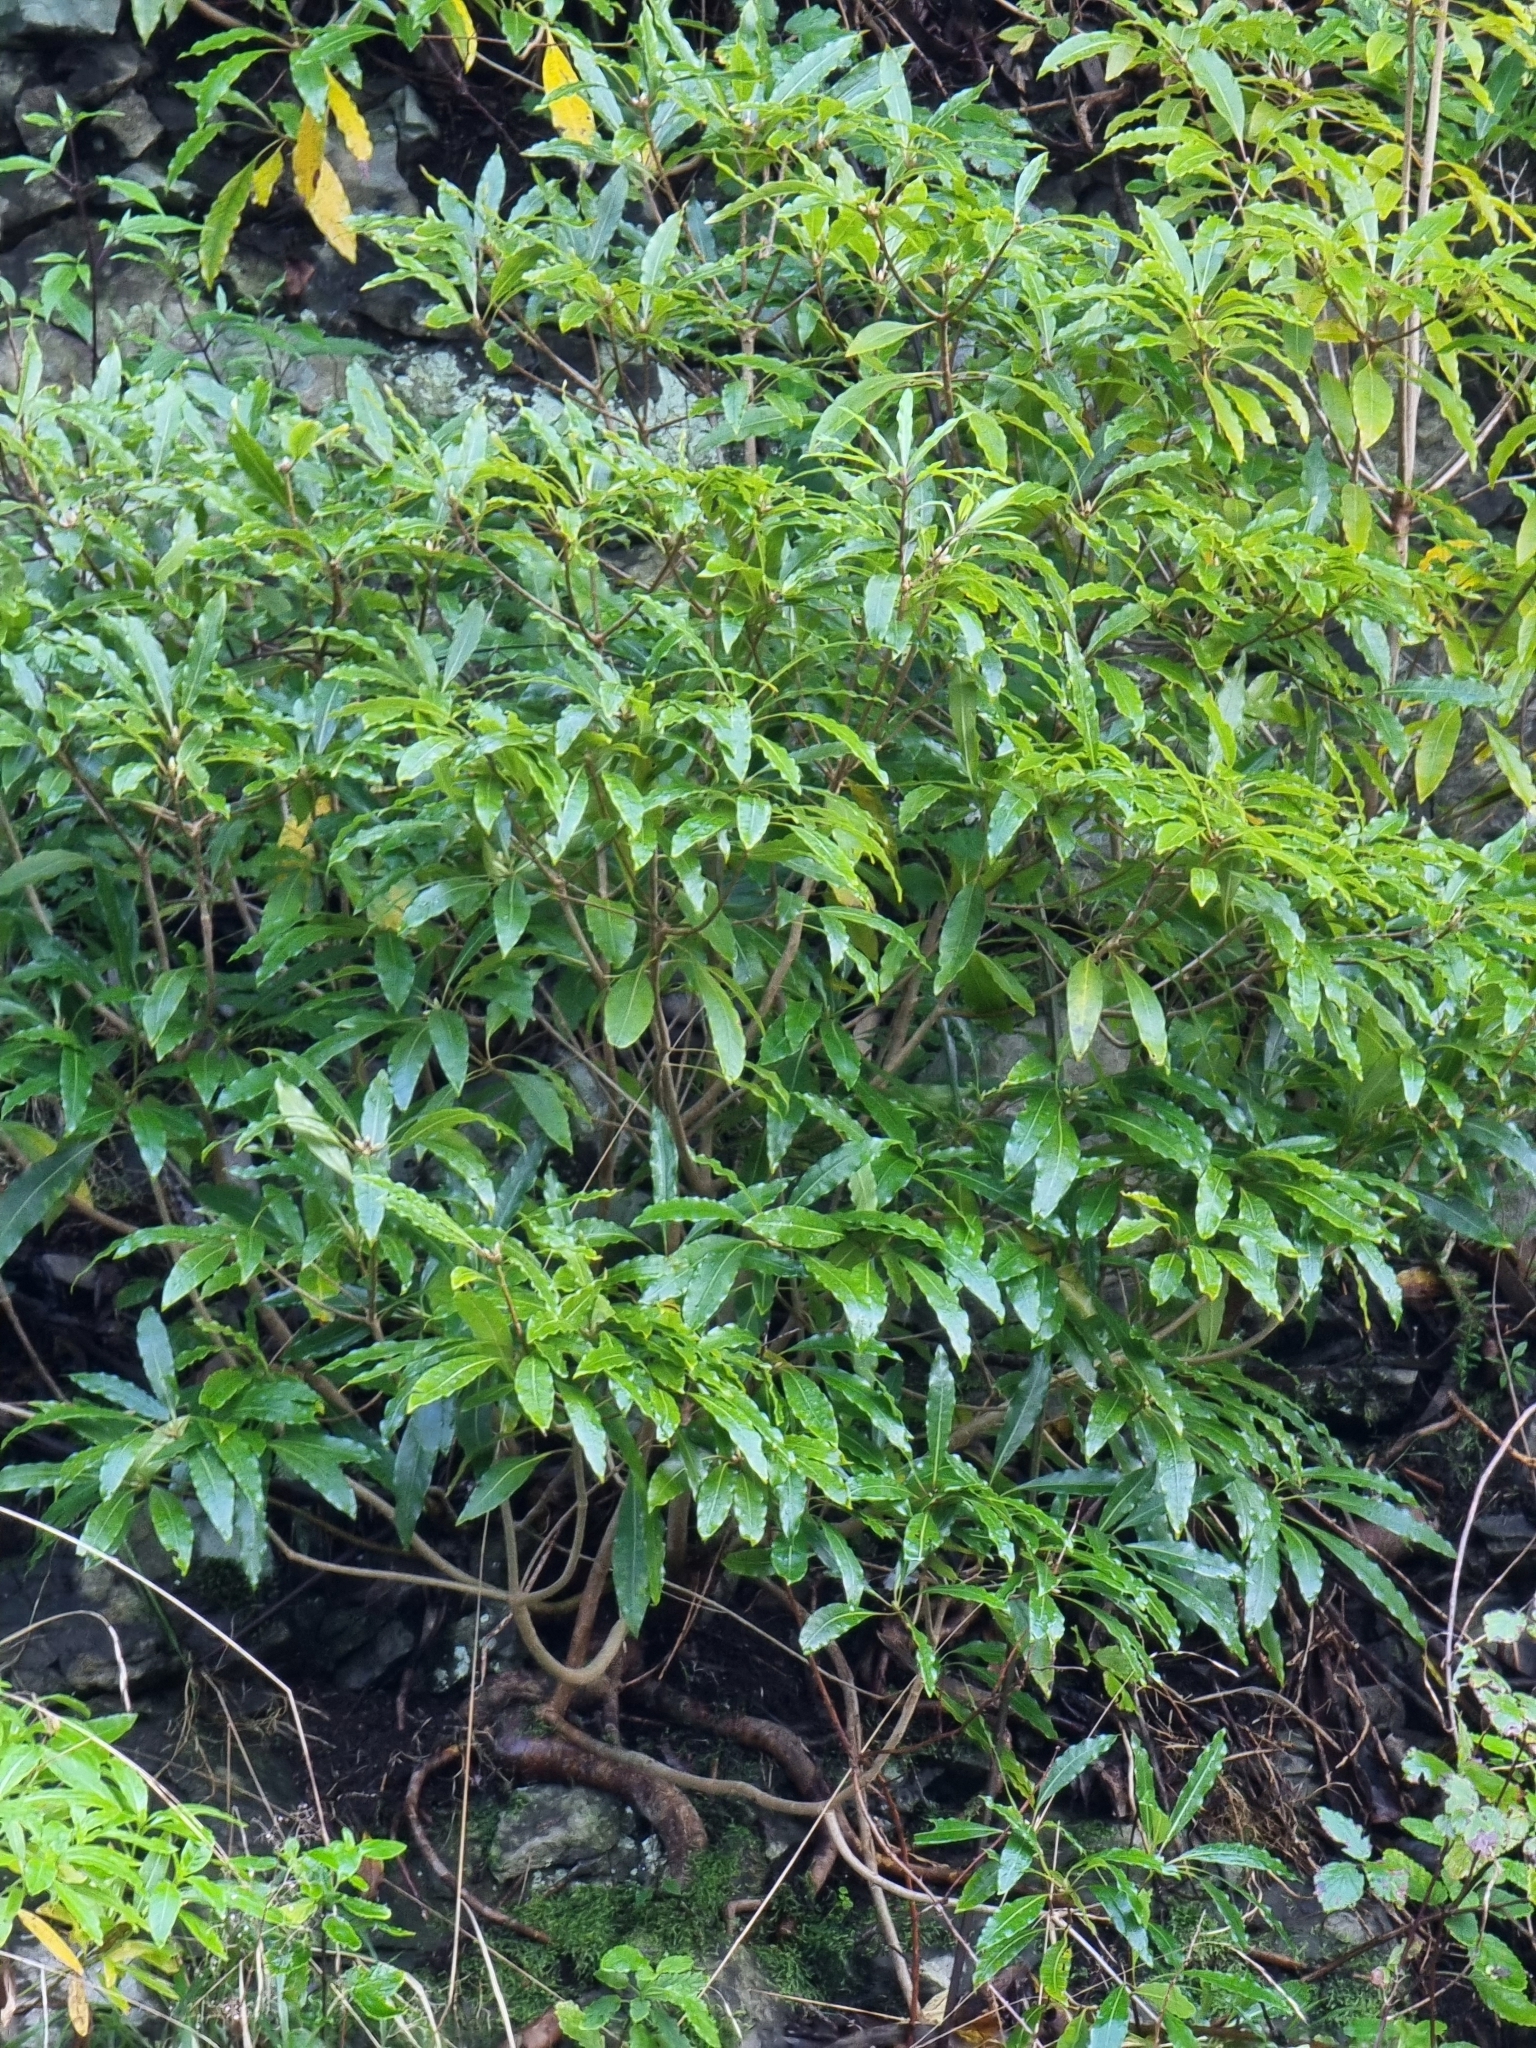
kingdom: Plantae
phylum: Tracheophyta
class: Magnoliopsida
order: Apiales
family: Pittosporaceae
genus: Pittosporum
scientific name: Pittosporum undulatum
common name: Australian cheesewood
